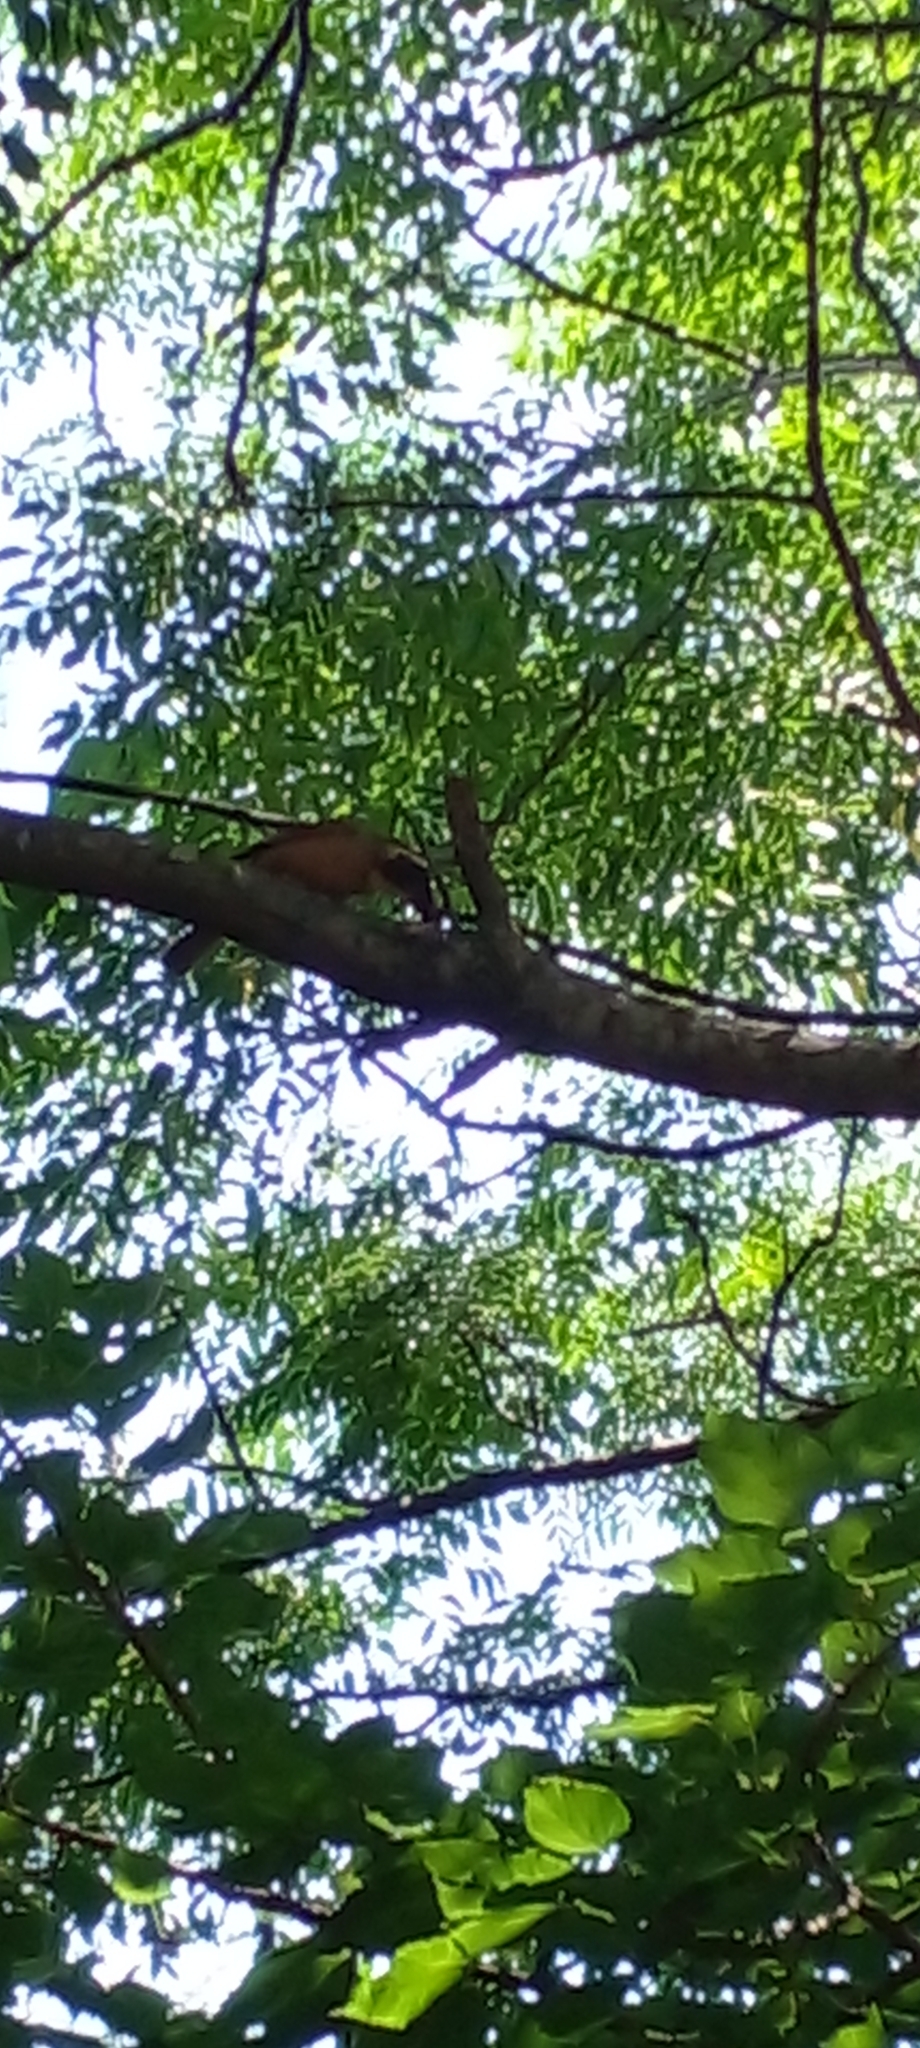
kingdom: Animalia
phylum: Chordata
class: Aves
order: Passeriformes
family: Thraupidae
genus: Saltator
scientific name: Saltator aurantiirostris
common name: Golden-billed saltator
